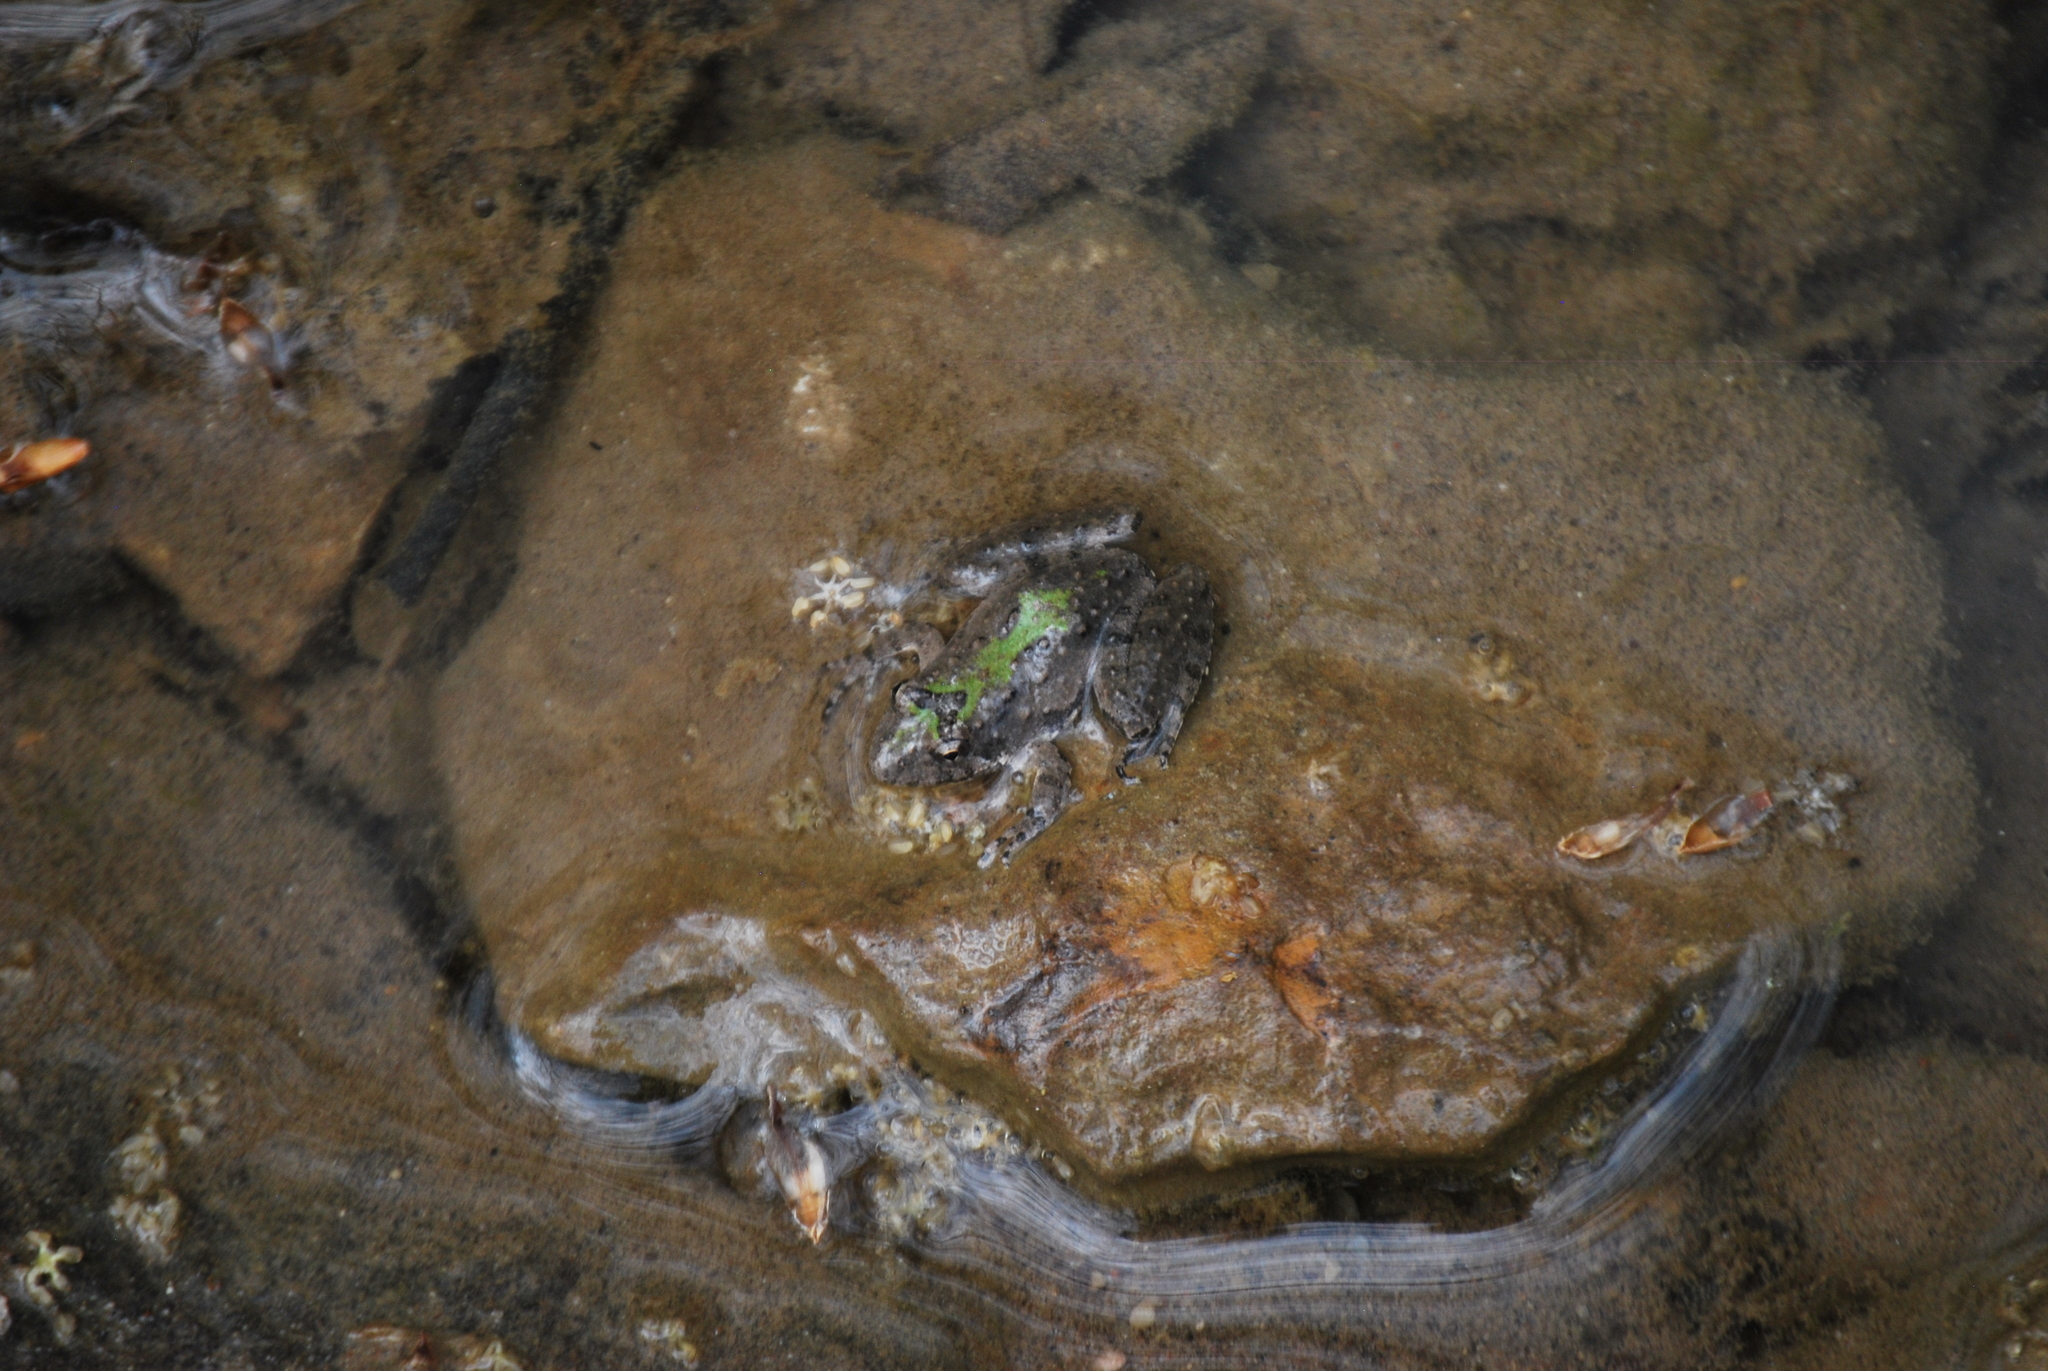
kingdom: Animalia
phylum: Chordata
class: Amphibia
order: Anura
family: Hylidae
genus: Acris
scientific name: Acris blanchardi
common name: Blanchard's cricket frog
